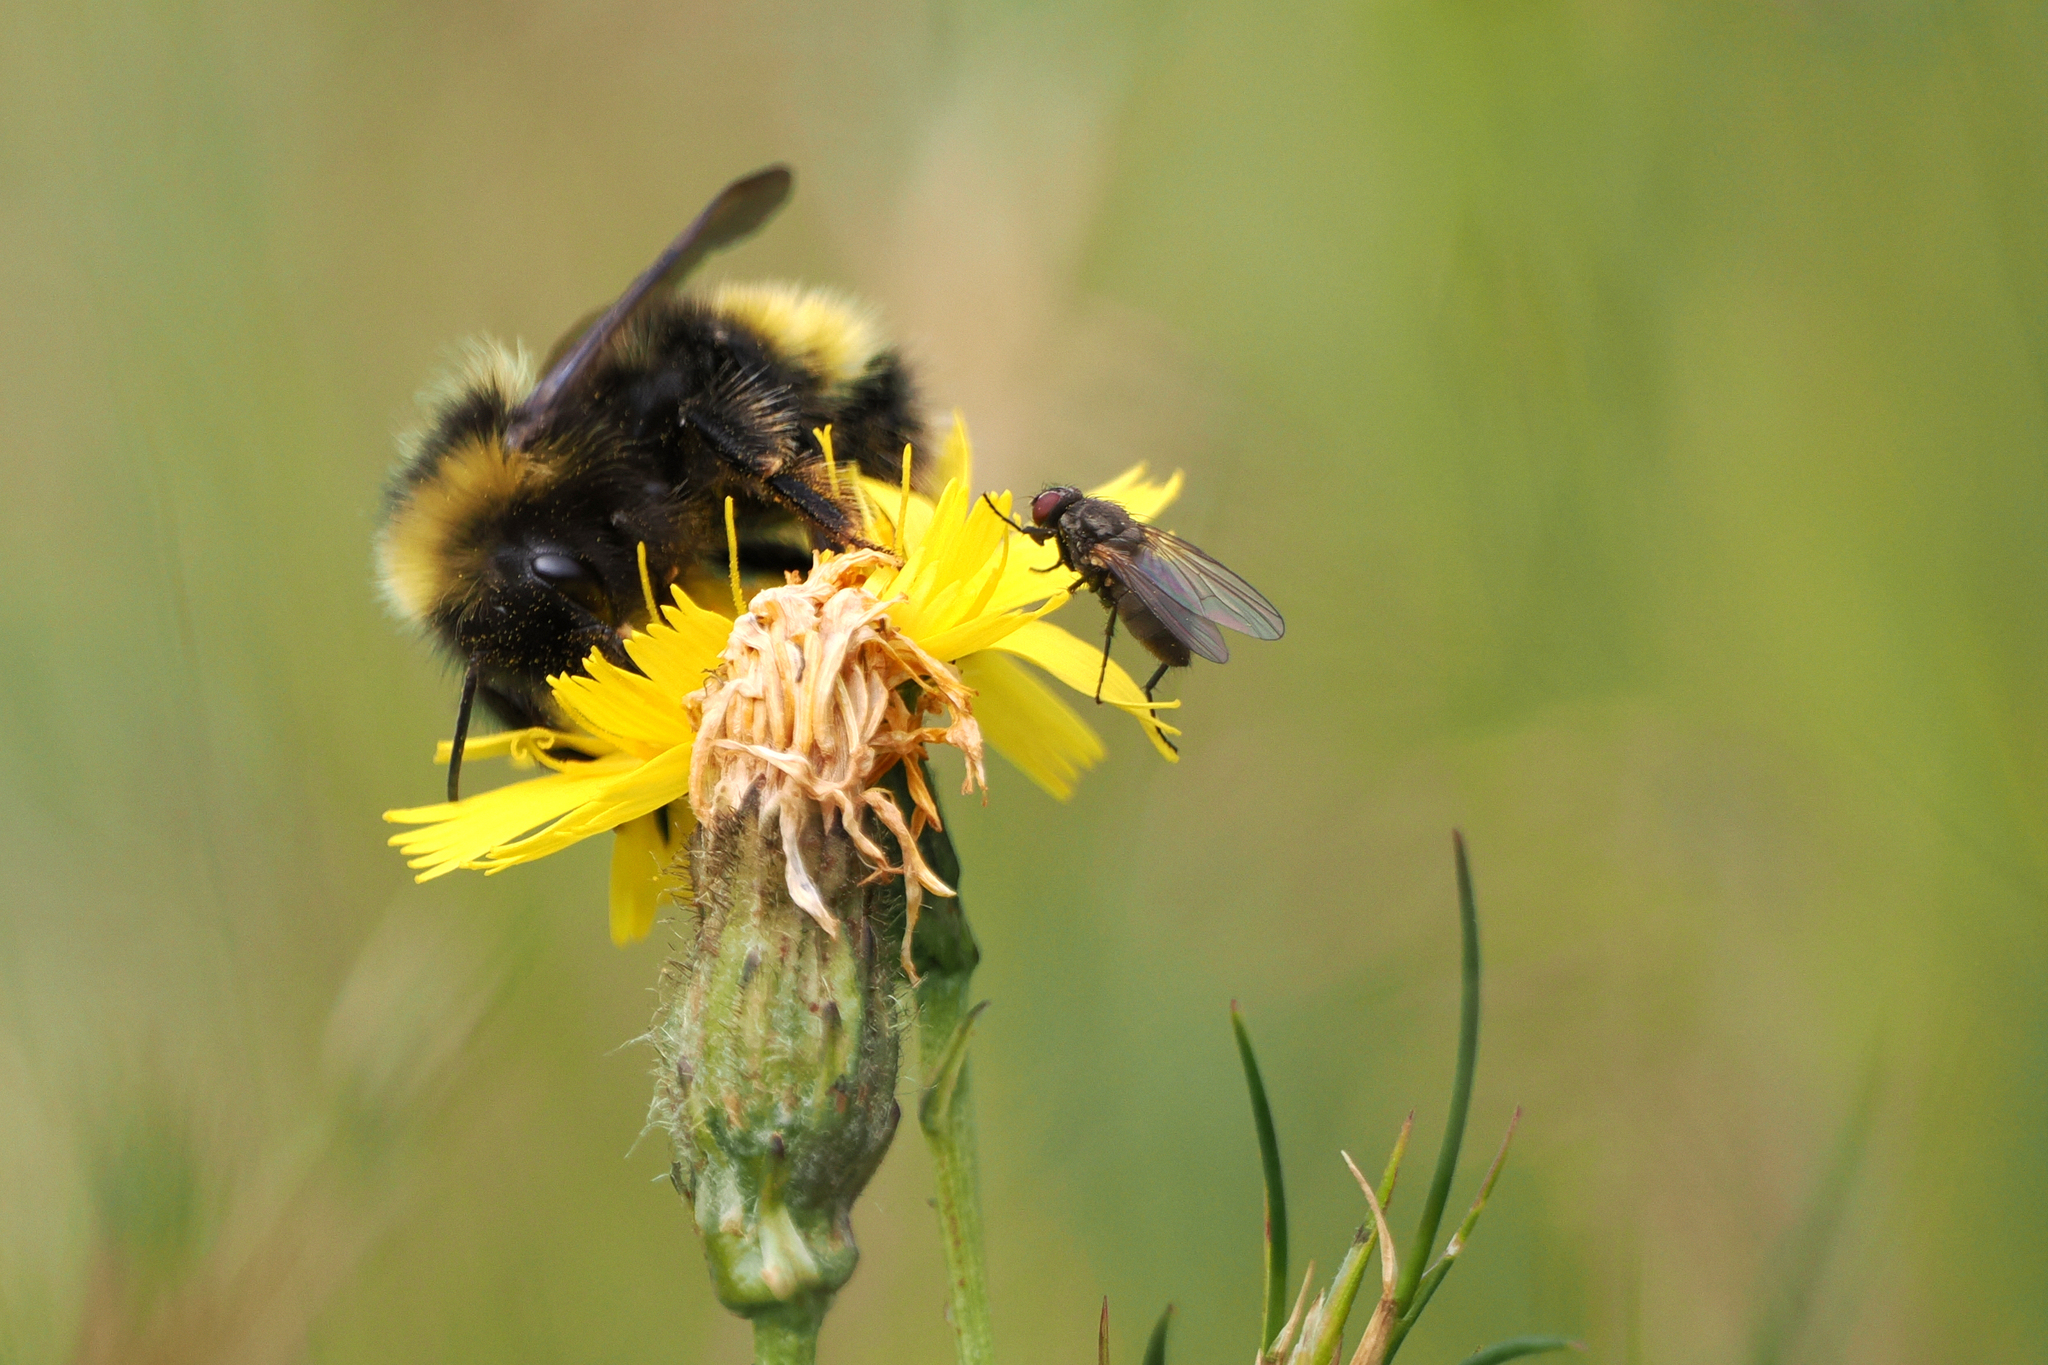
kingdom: Animalia
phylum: Arthropoda
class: Insecta
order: Hymenoptera
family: Apidae
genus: Bombus
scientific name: Bombus
